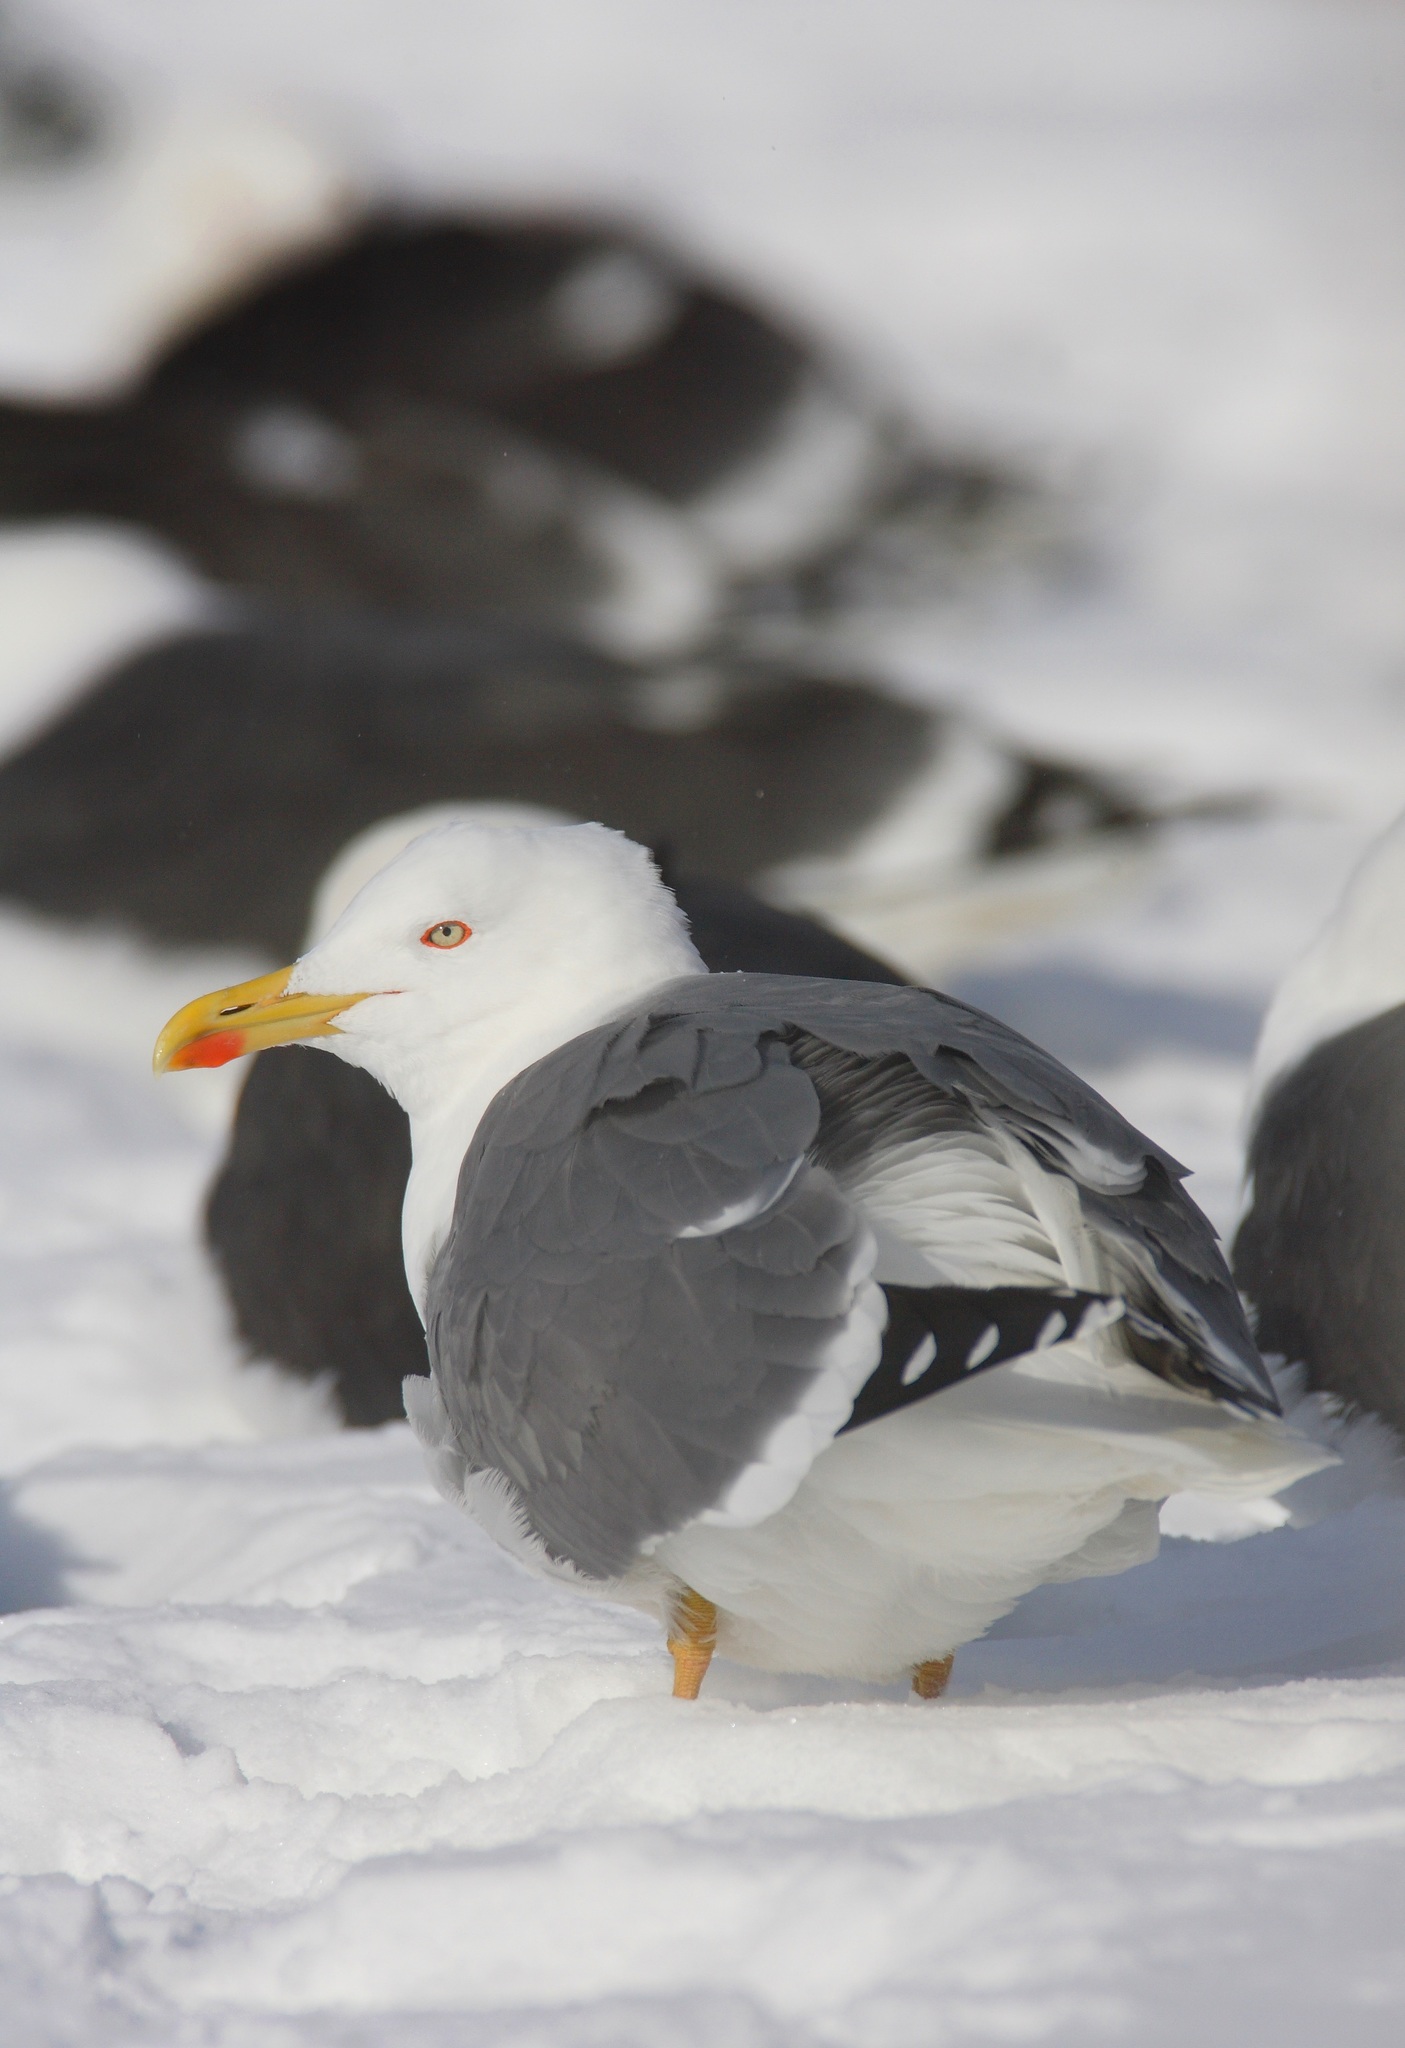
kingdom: Animalia
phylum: Chordata
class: Aves
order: Charadriiformes
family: Laridae
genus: Larus
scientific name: Larus michahellis
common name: Yellow-legged gull
